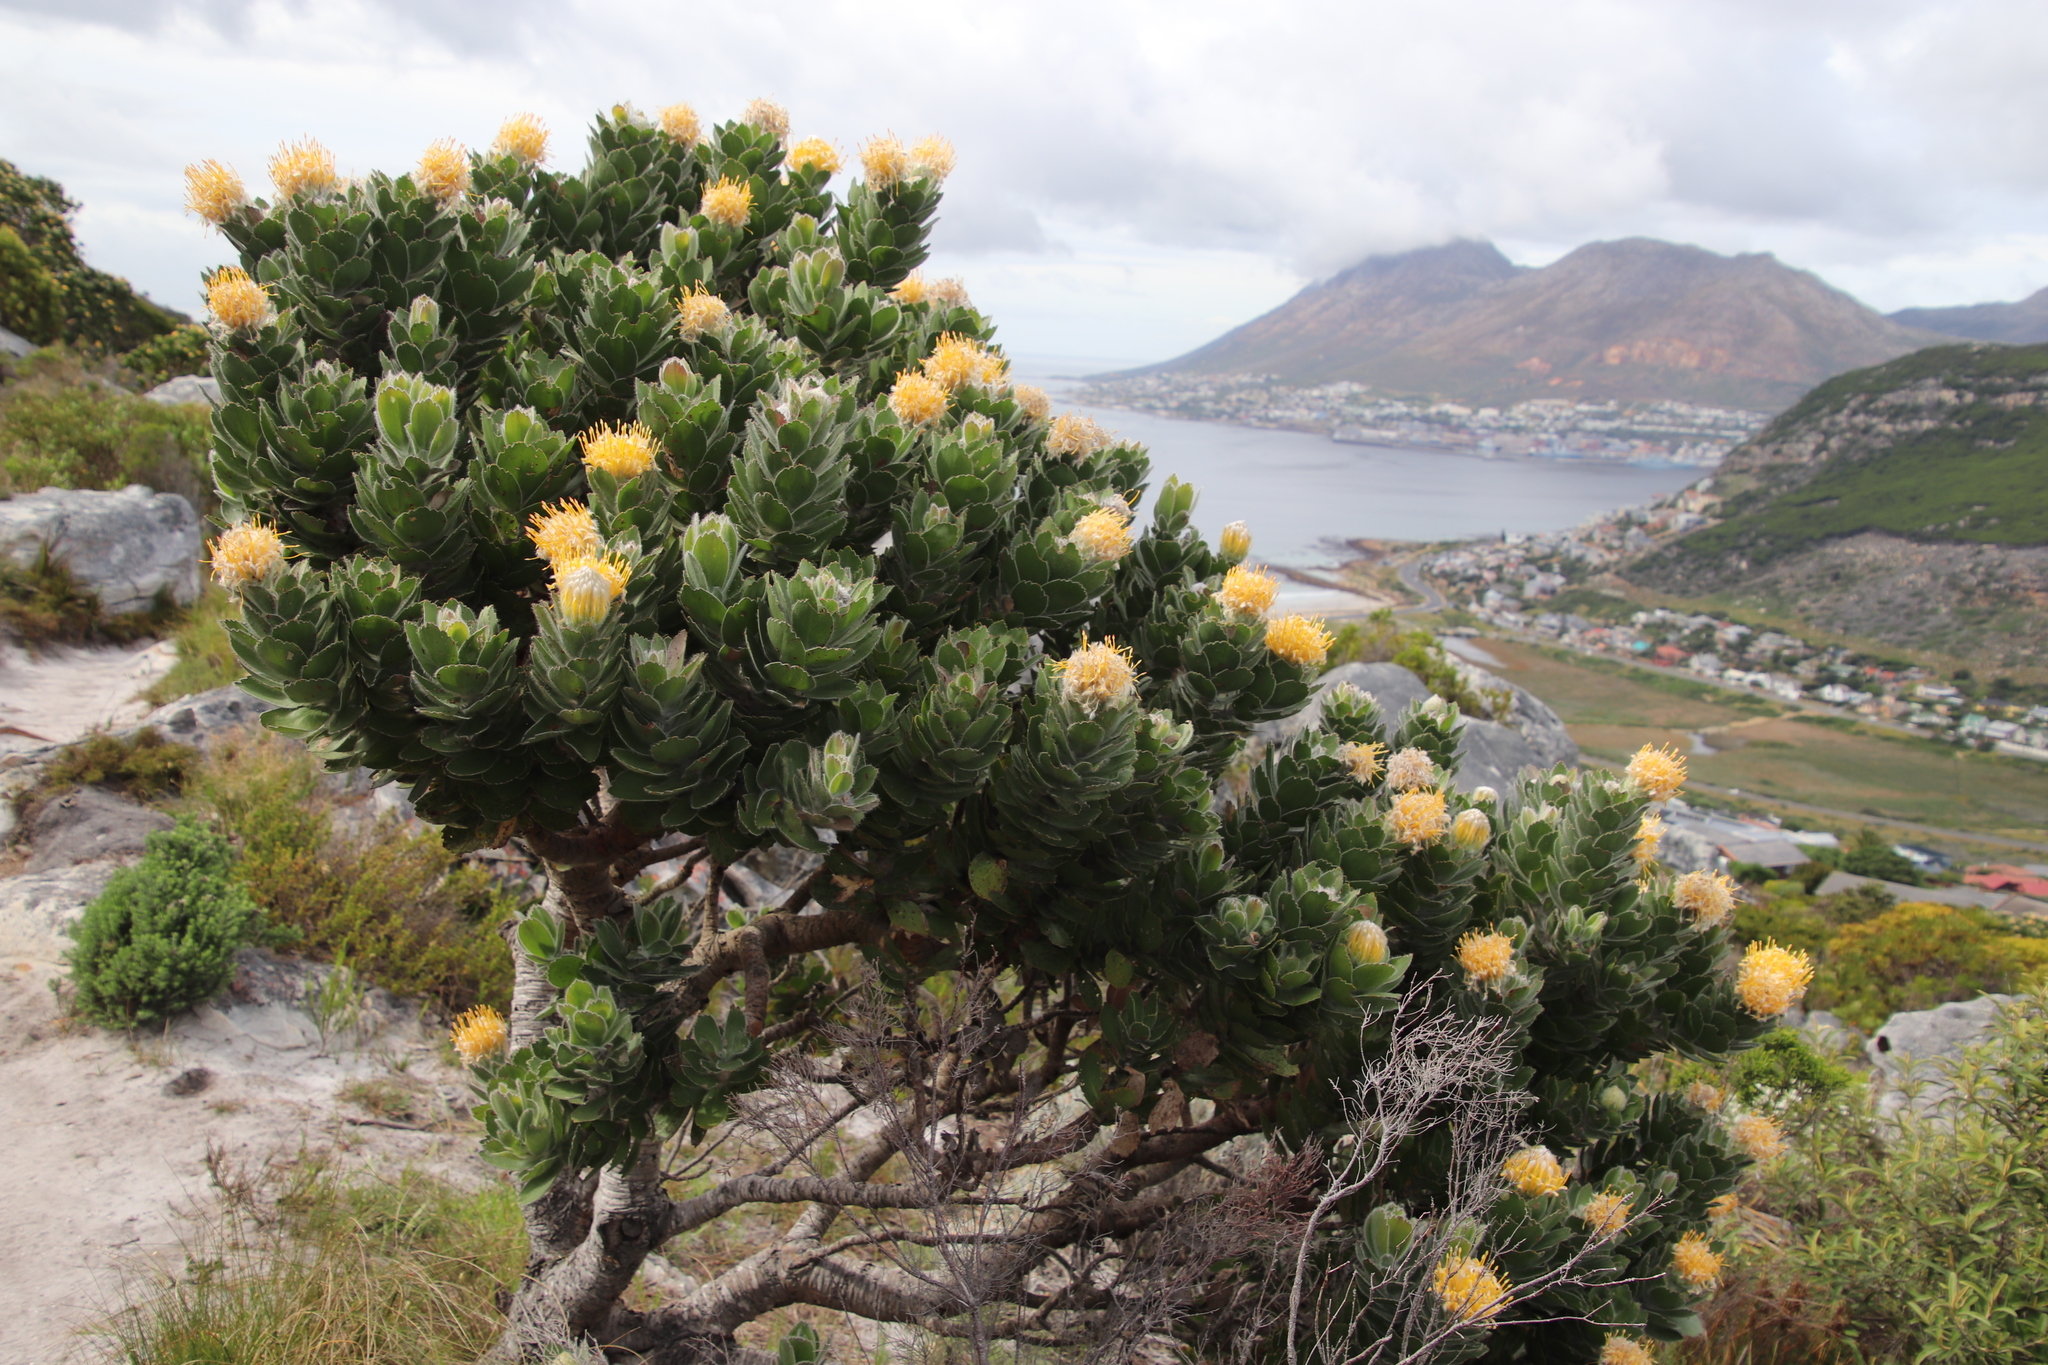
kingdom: Plantae
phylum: Tracheophyta
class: Magnoliopsida
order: Proteales
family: Proteaceae
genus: Leucospermum
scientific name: Leucospermum conocarpodendron
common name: Tree pincushion
